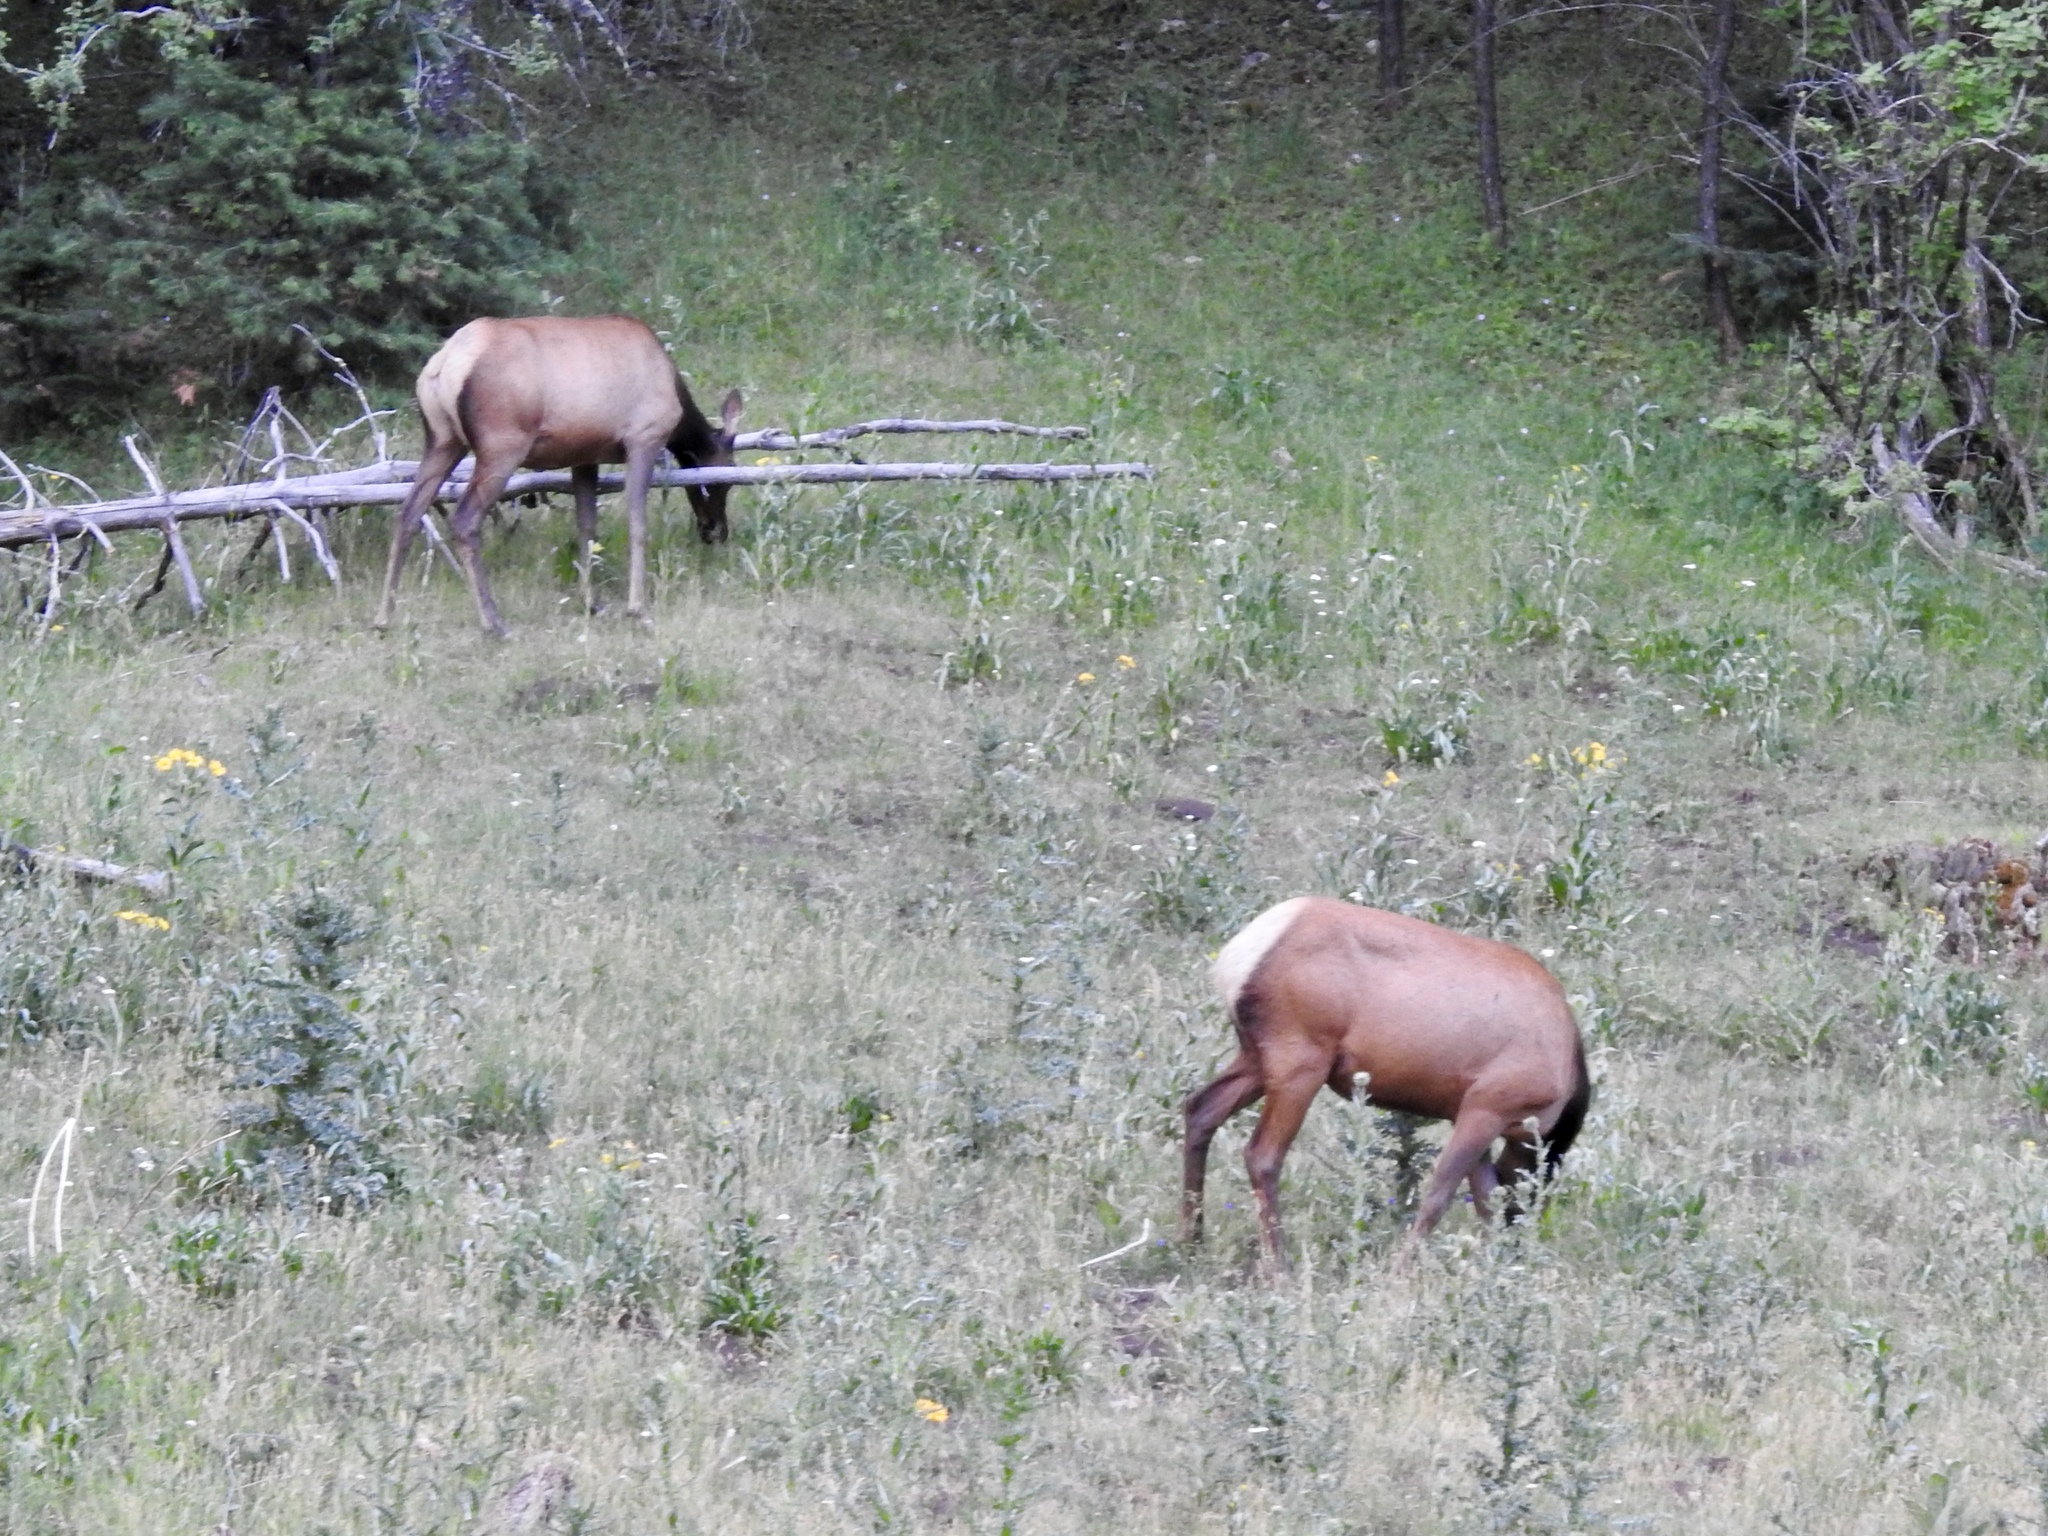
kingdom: Animalia
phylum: Chordata
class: Mammalia
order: Artiodactyla
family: Cervidae
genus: Cervus
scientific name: Cervus elaphus
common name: Red deer
